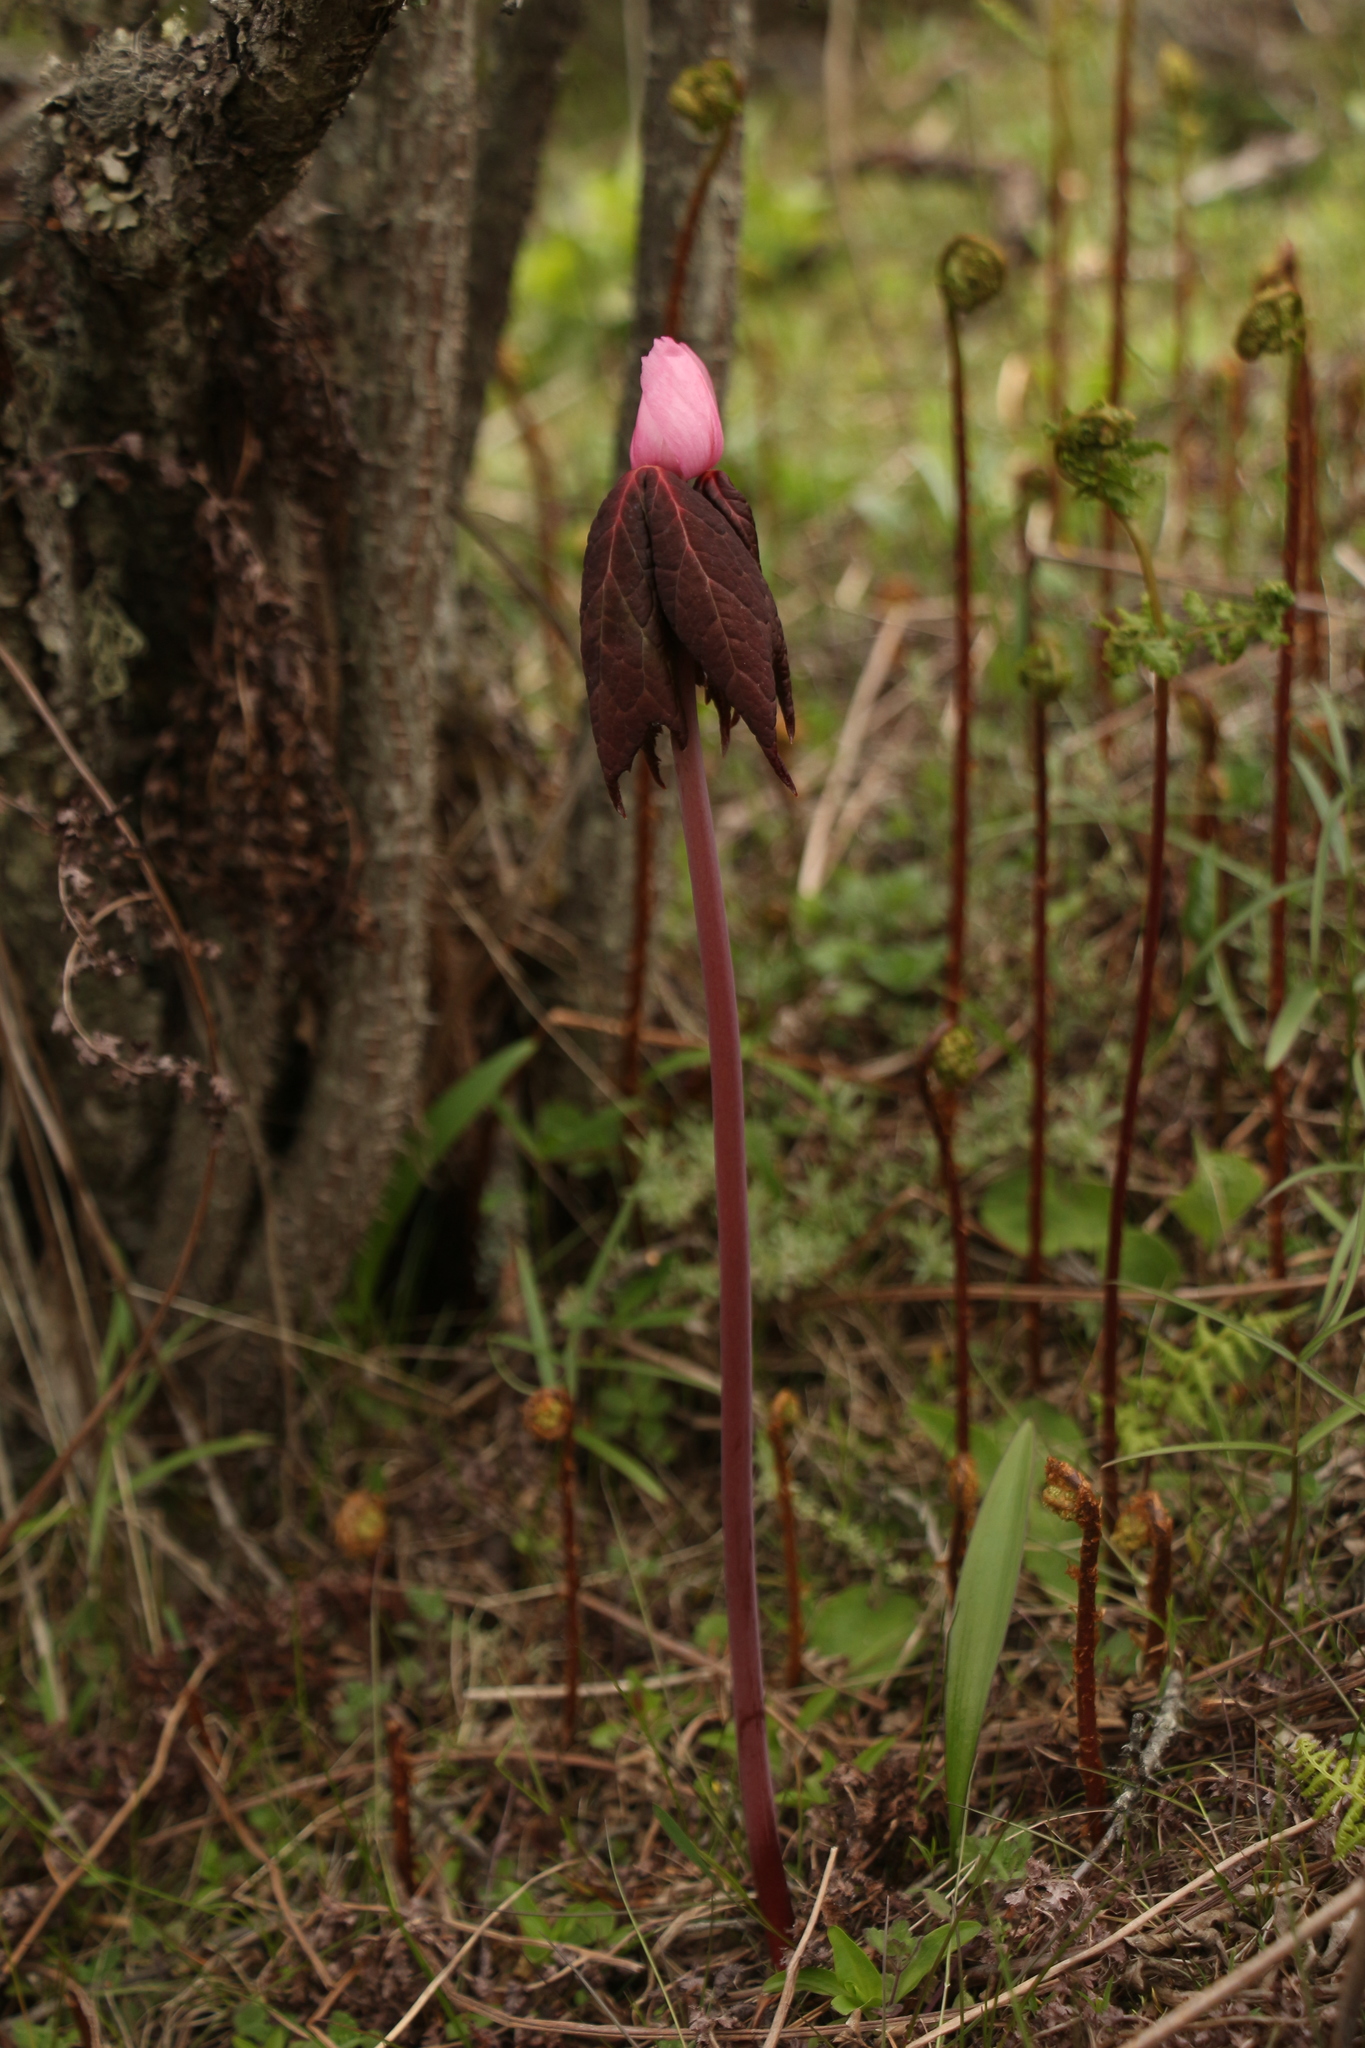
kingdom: Plantae
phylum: Tracheophyta
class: Magnoliopsida
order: Ranunculales
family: Berberidaceae
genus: Sinopodophyllum
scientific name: Sinopodophyllum hexandrum
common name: Himalayan may-apple
